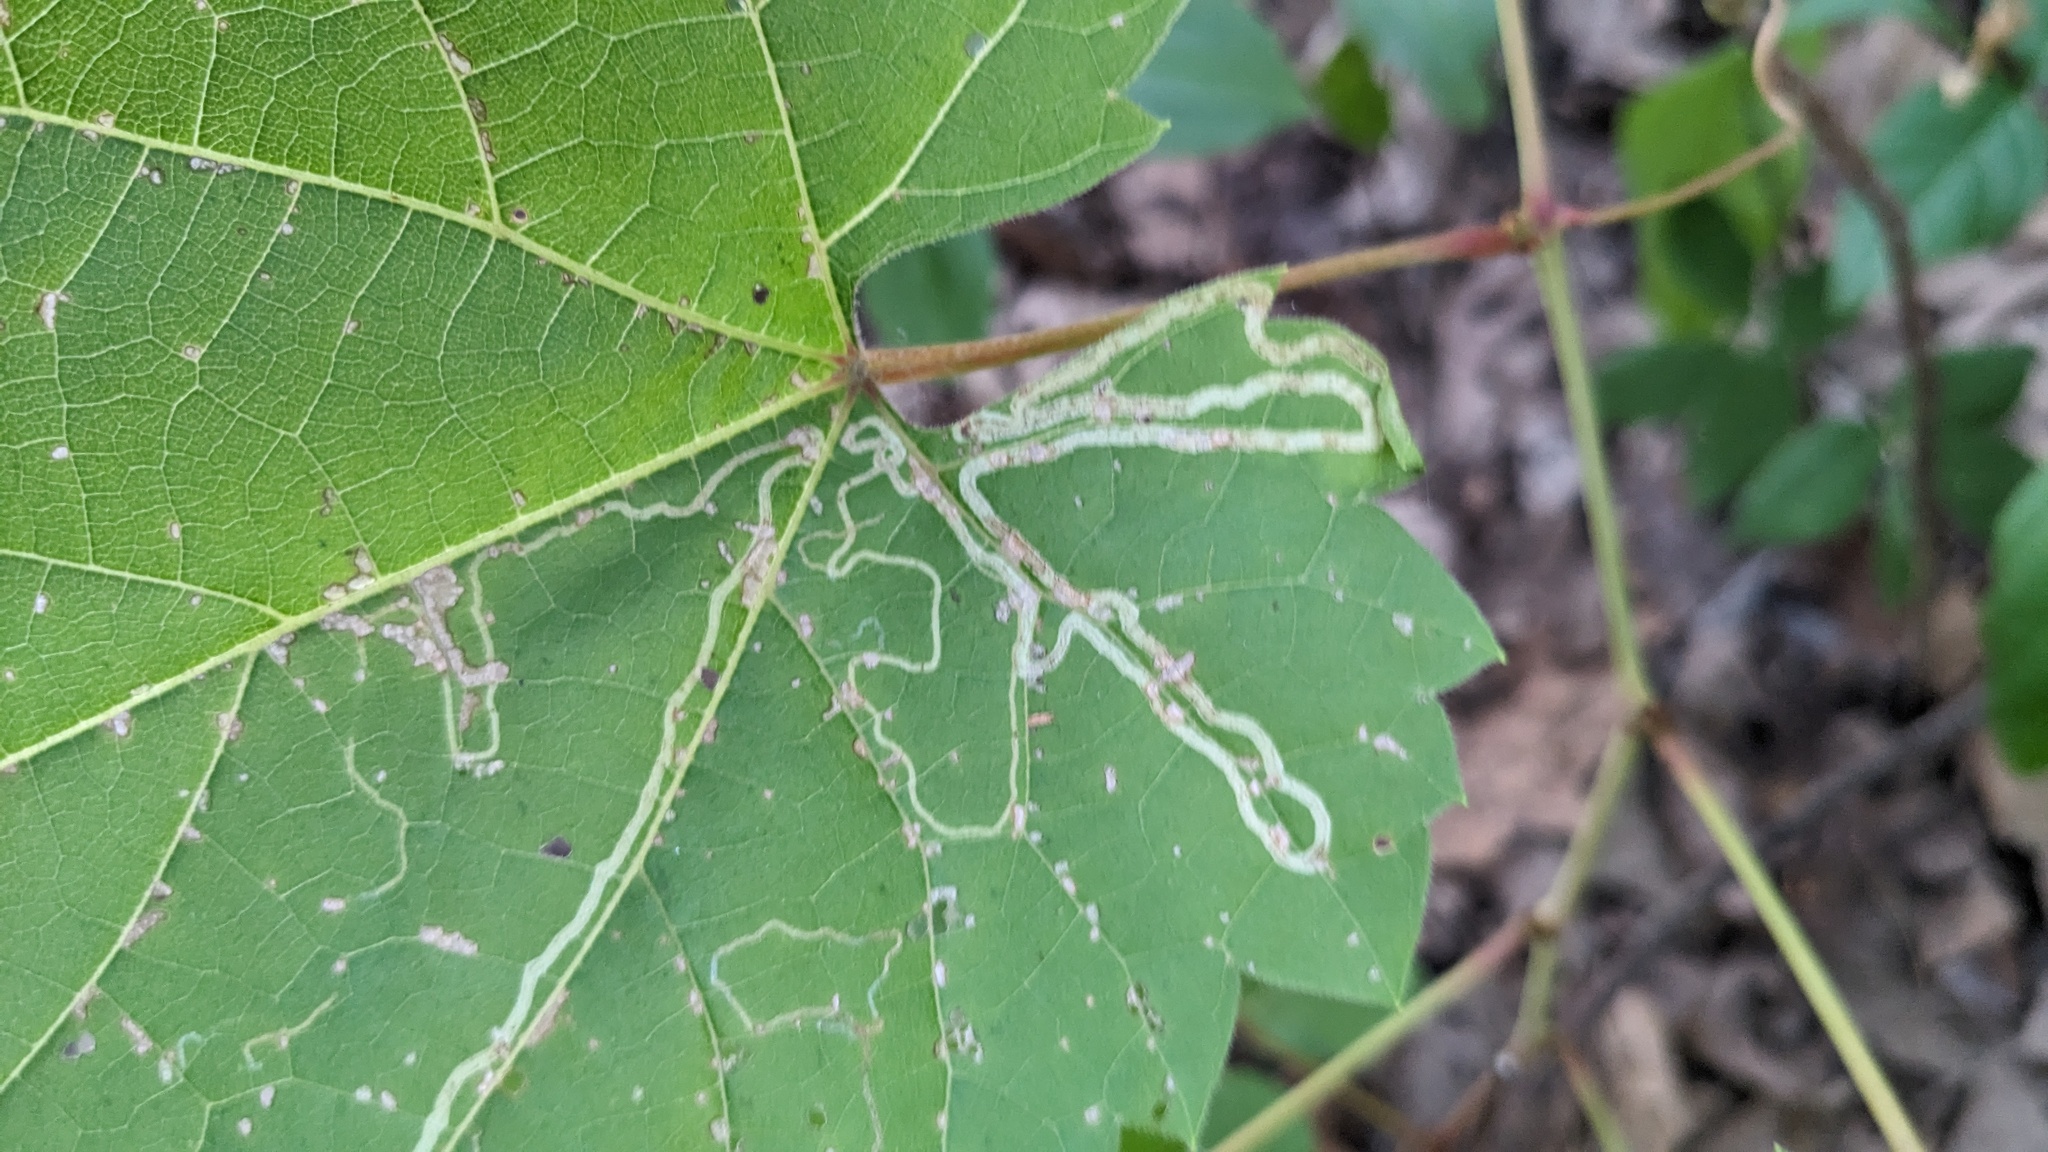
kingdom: Animalia
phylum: Arthropoda
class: Insecta
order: Lepidoptera
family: Gracillariidae
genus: Phyllocnistis
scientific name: Phyllocnistis vitifoliella
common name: Grape leaf-miner moth
